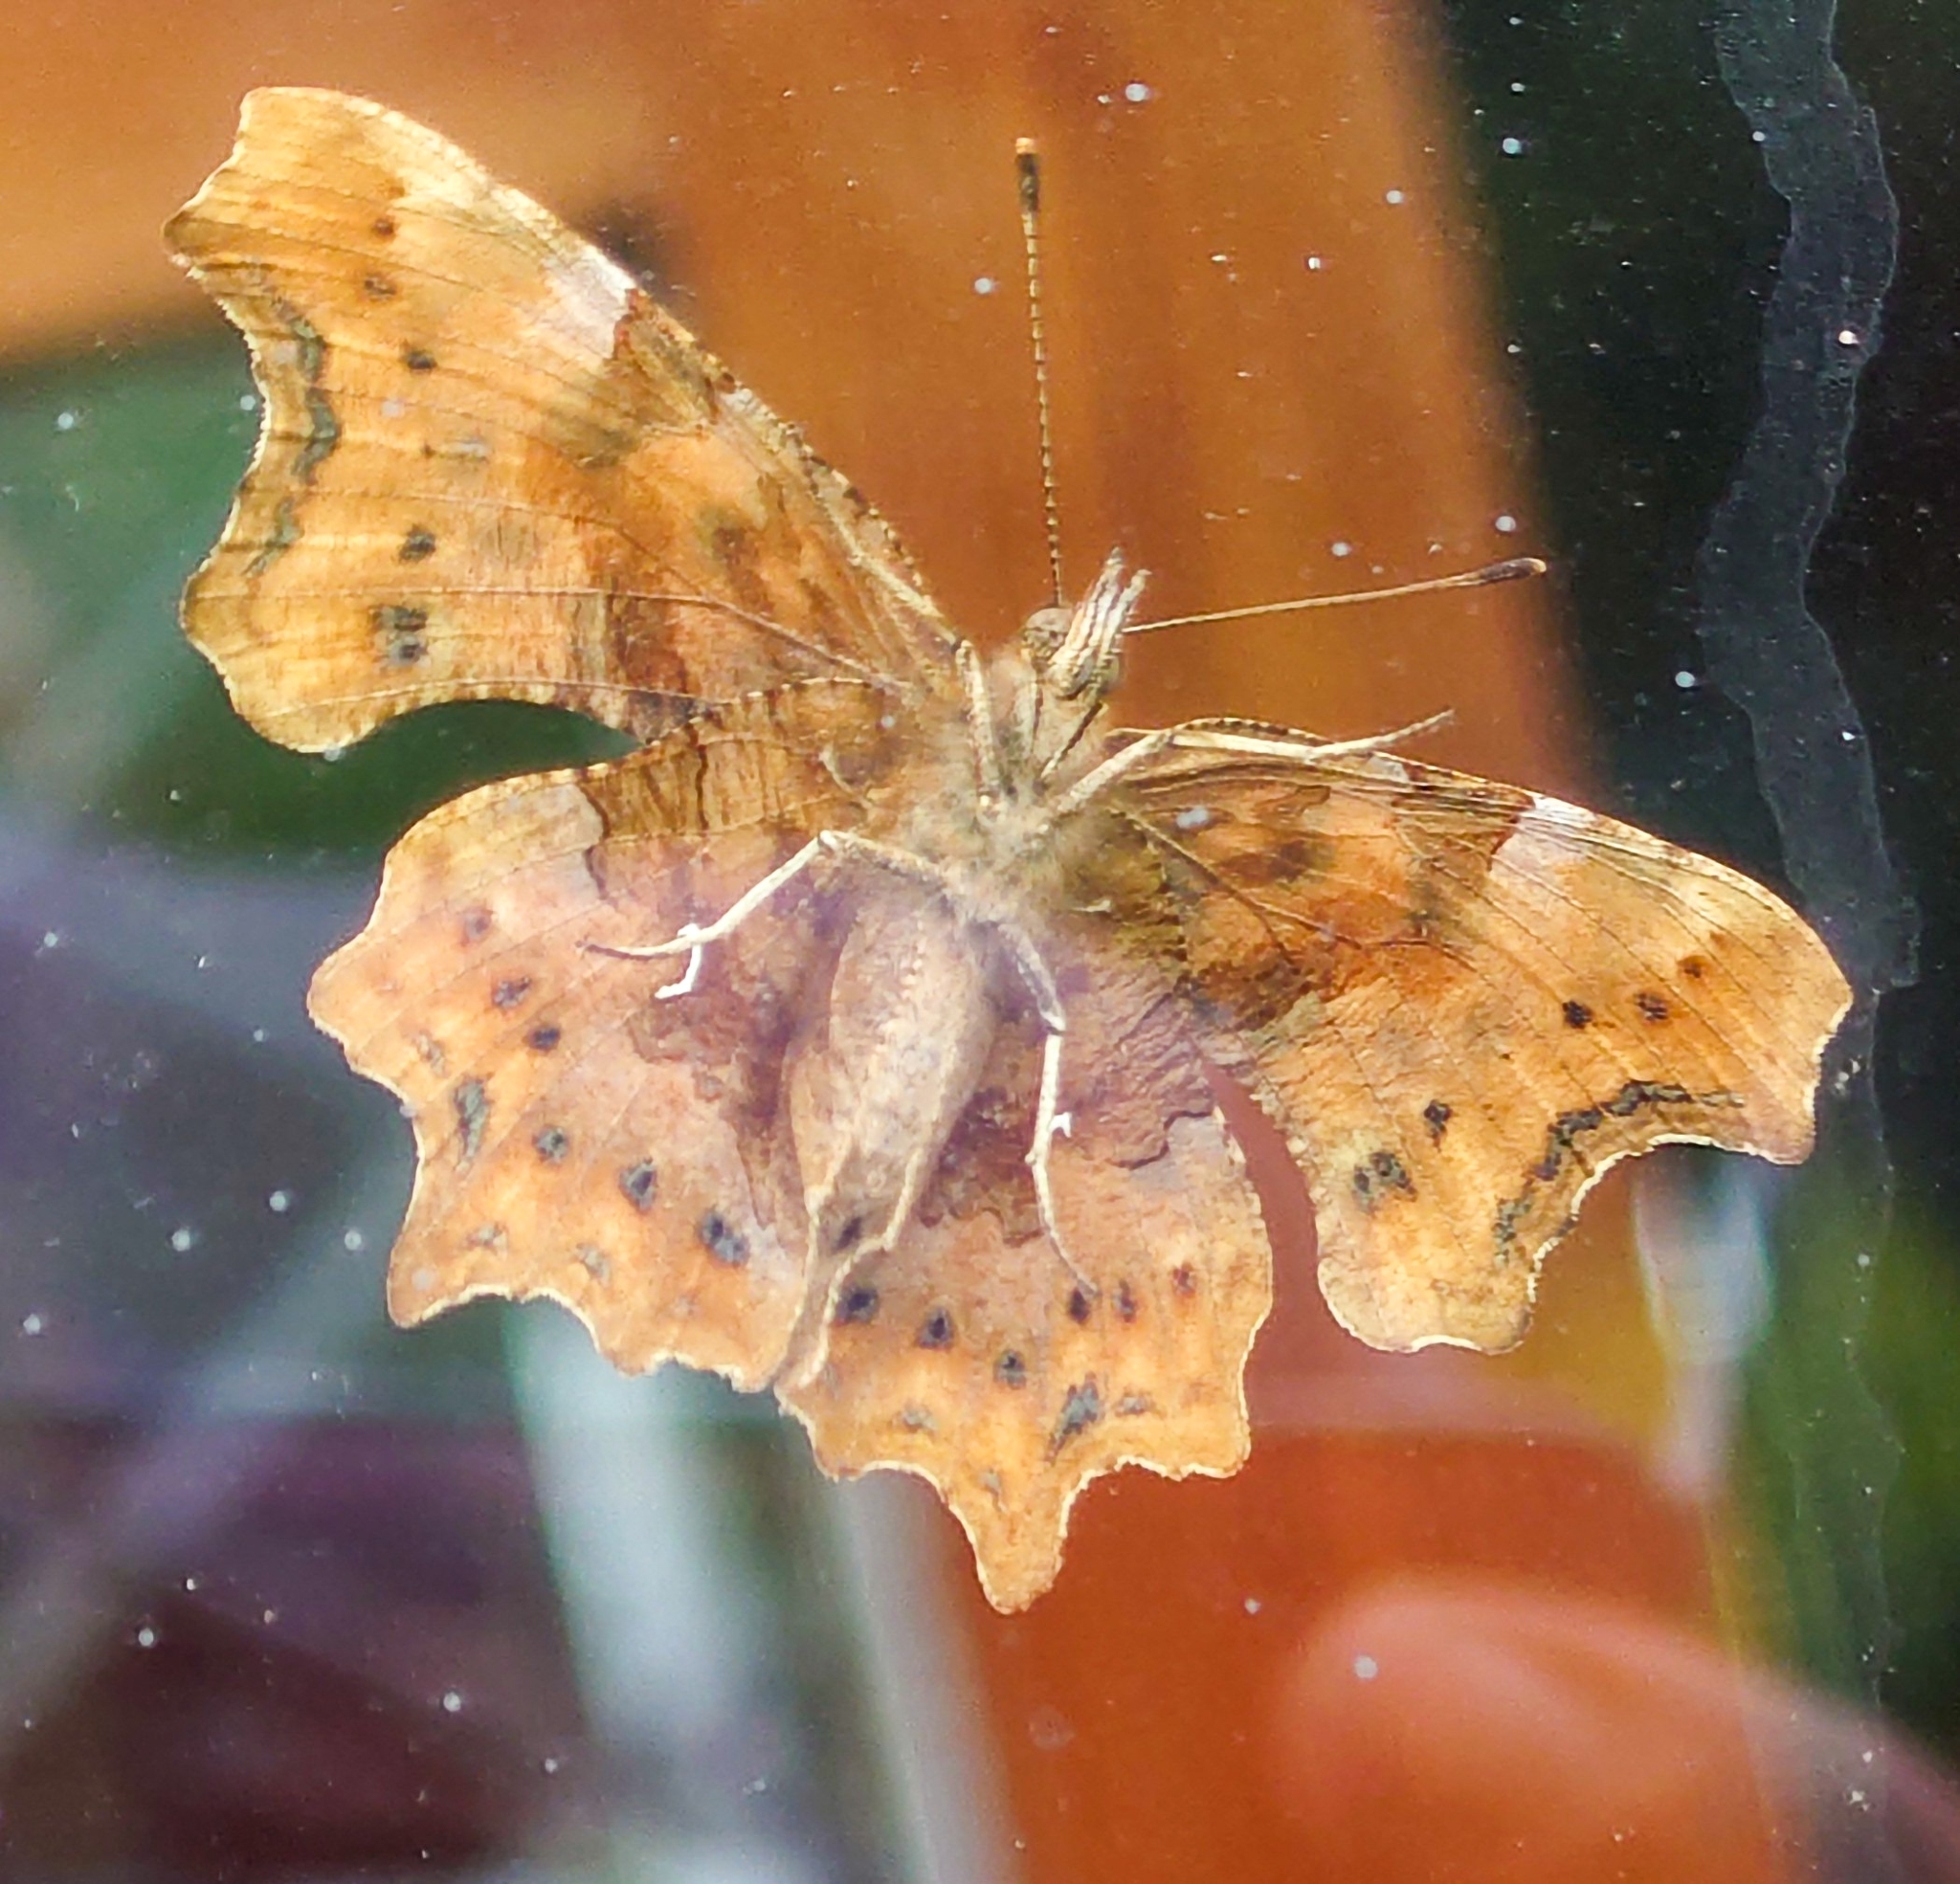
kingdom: Animalia
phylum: Arthropoda
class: Insecta
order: Lepidoptera
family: Nymphalidae
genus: Polygonia
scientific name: Polygonia c-album
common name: Comma
